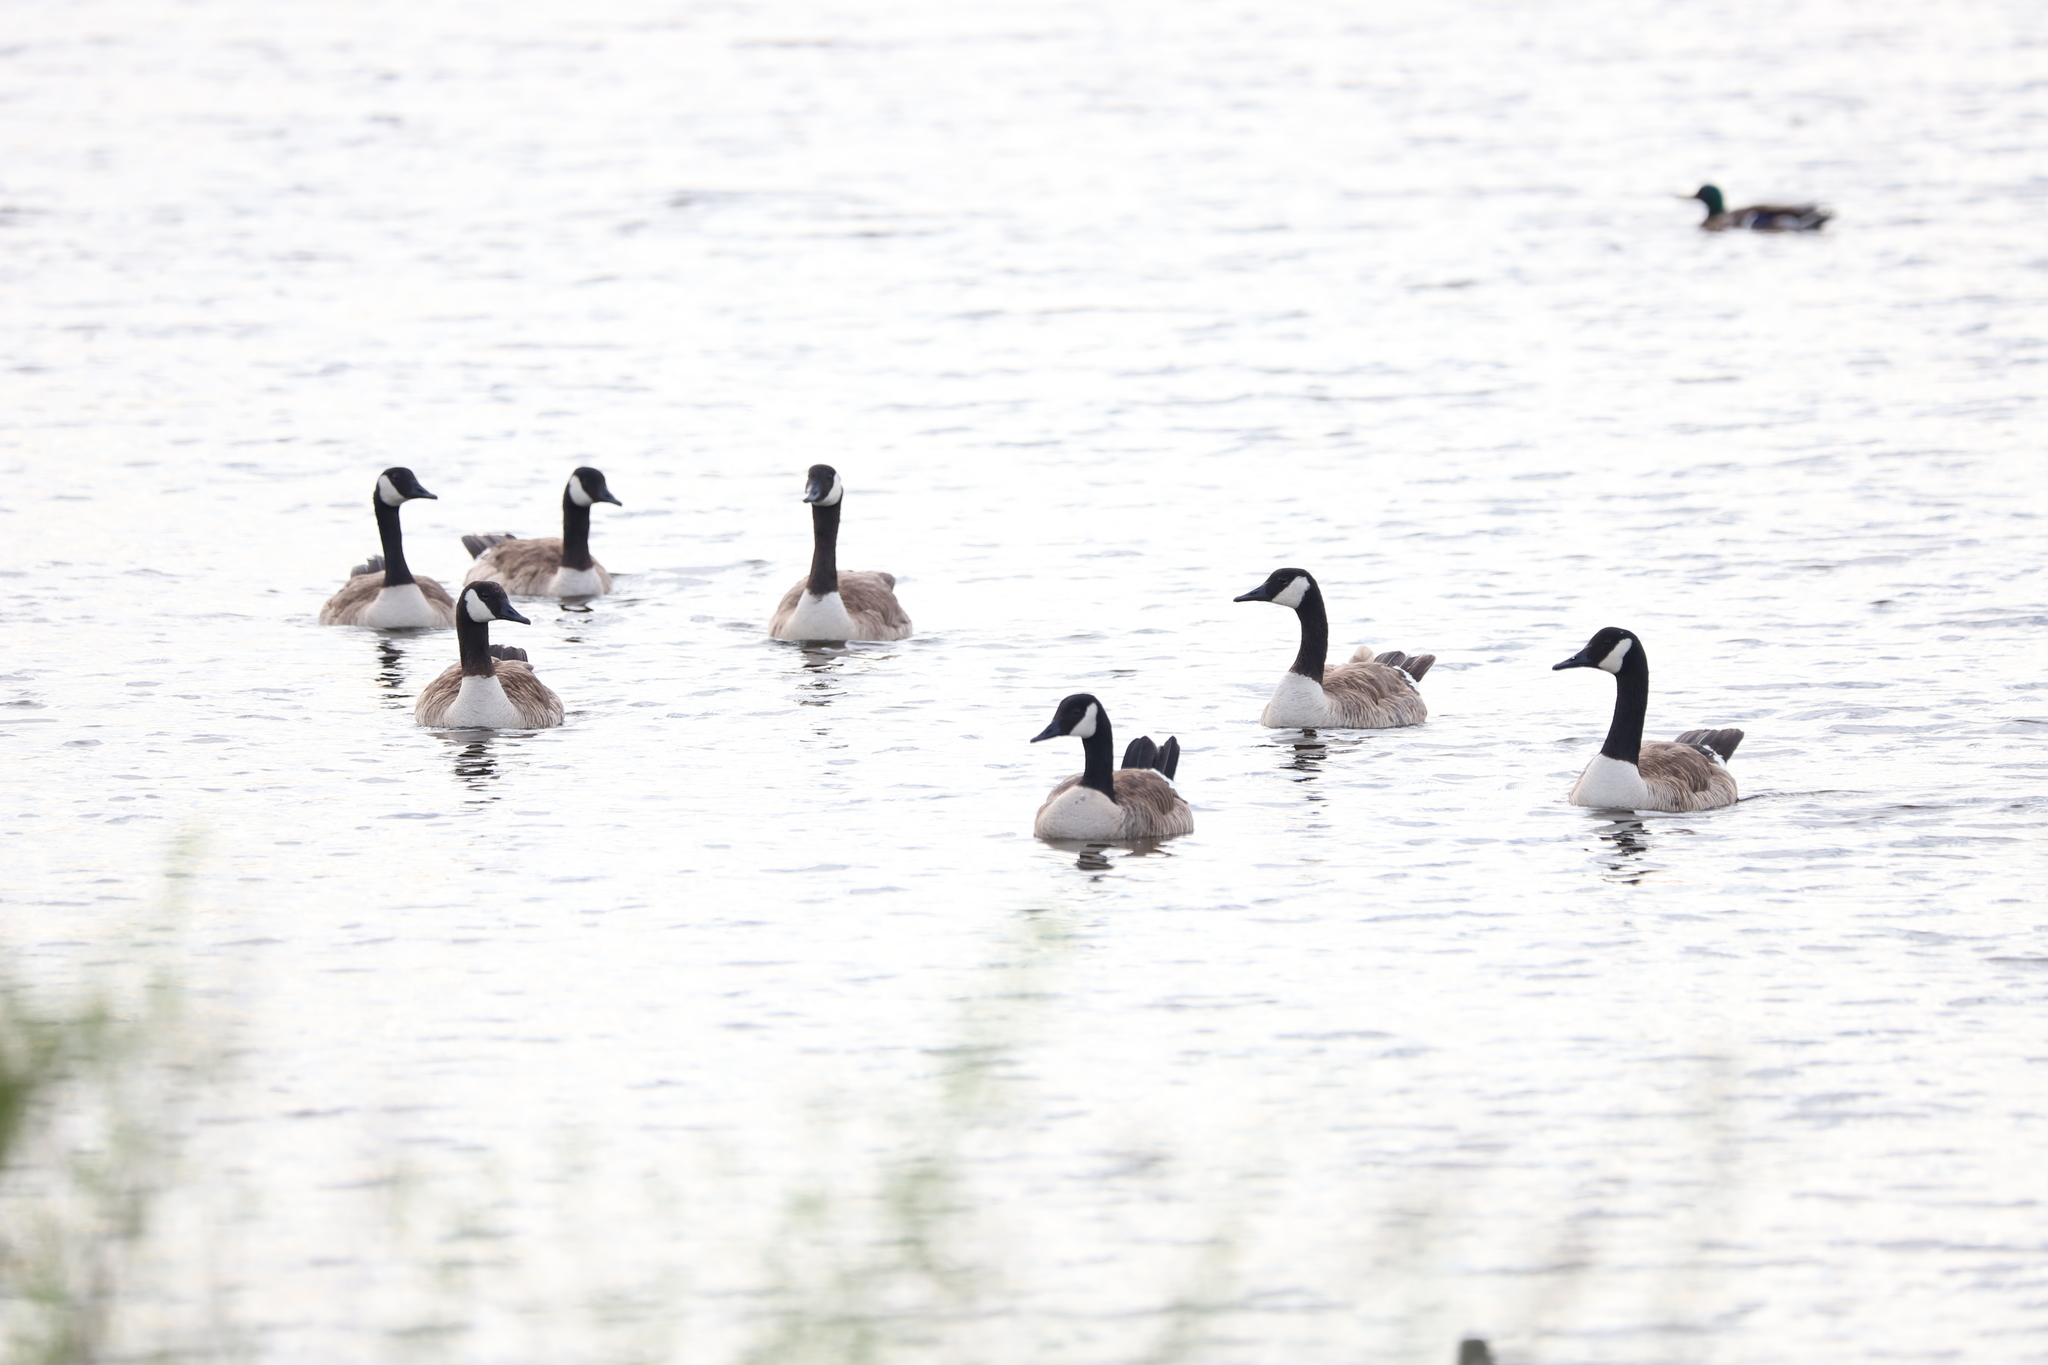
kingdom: Animalia
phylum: Chordata
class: Aves
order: Anseriformes
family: Anatidae
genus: Branta
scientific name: Branta canadensis
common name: Canada goose
